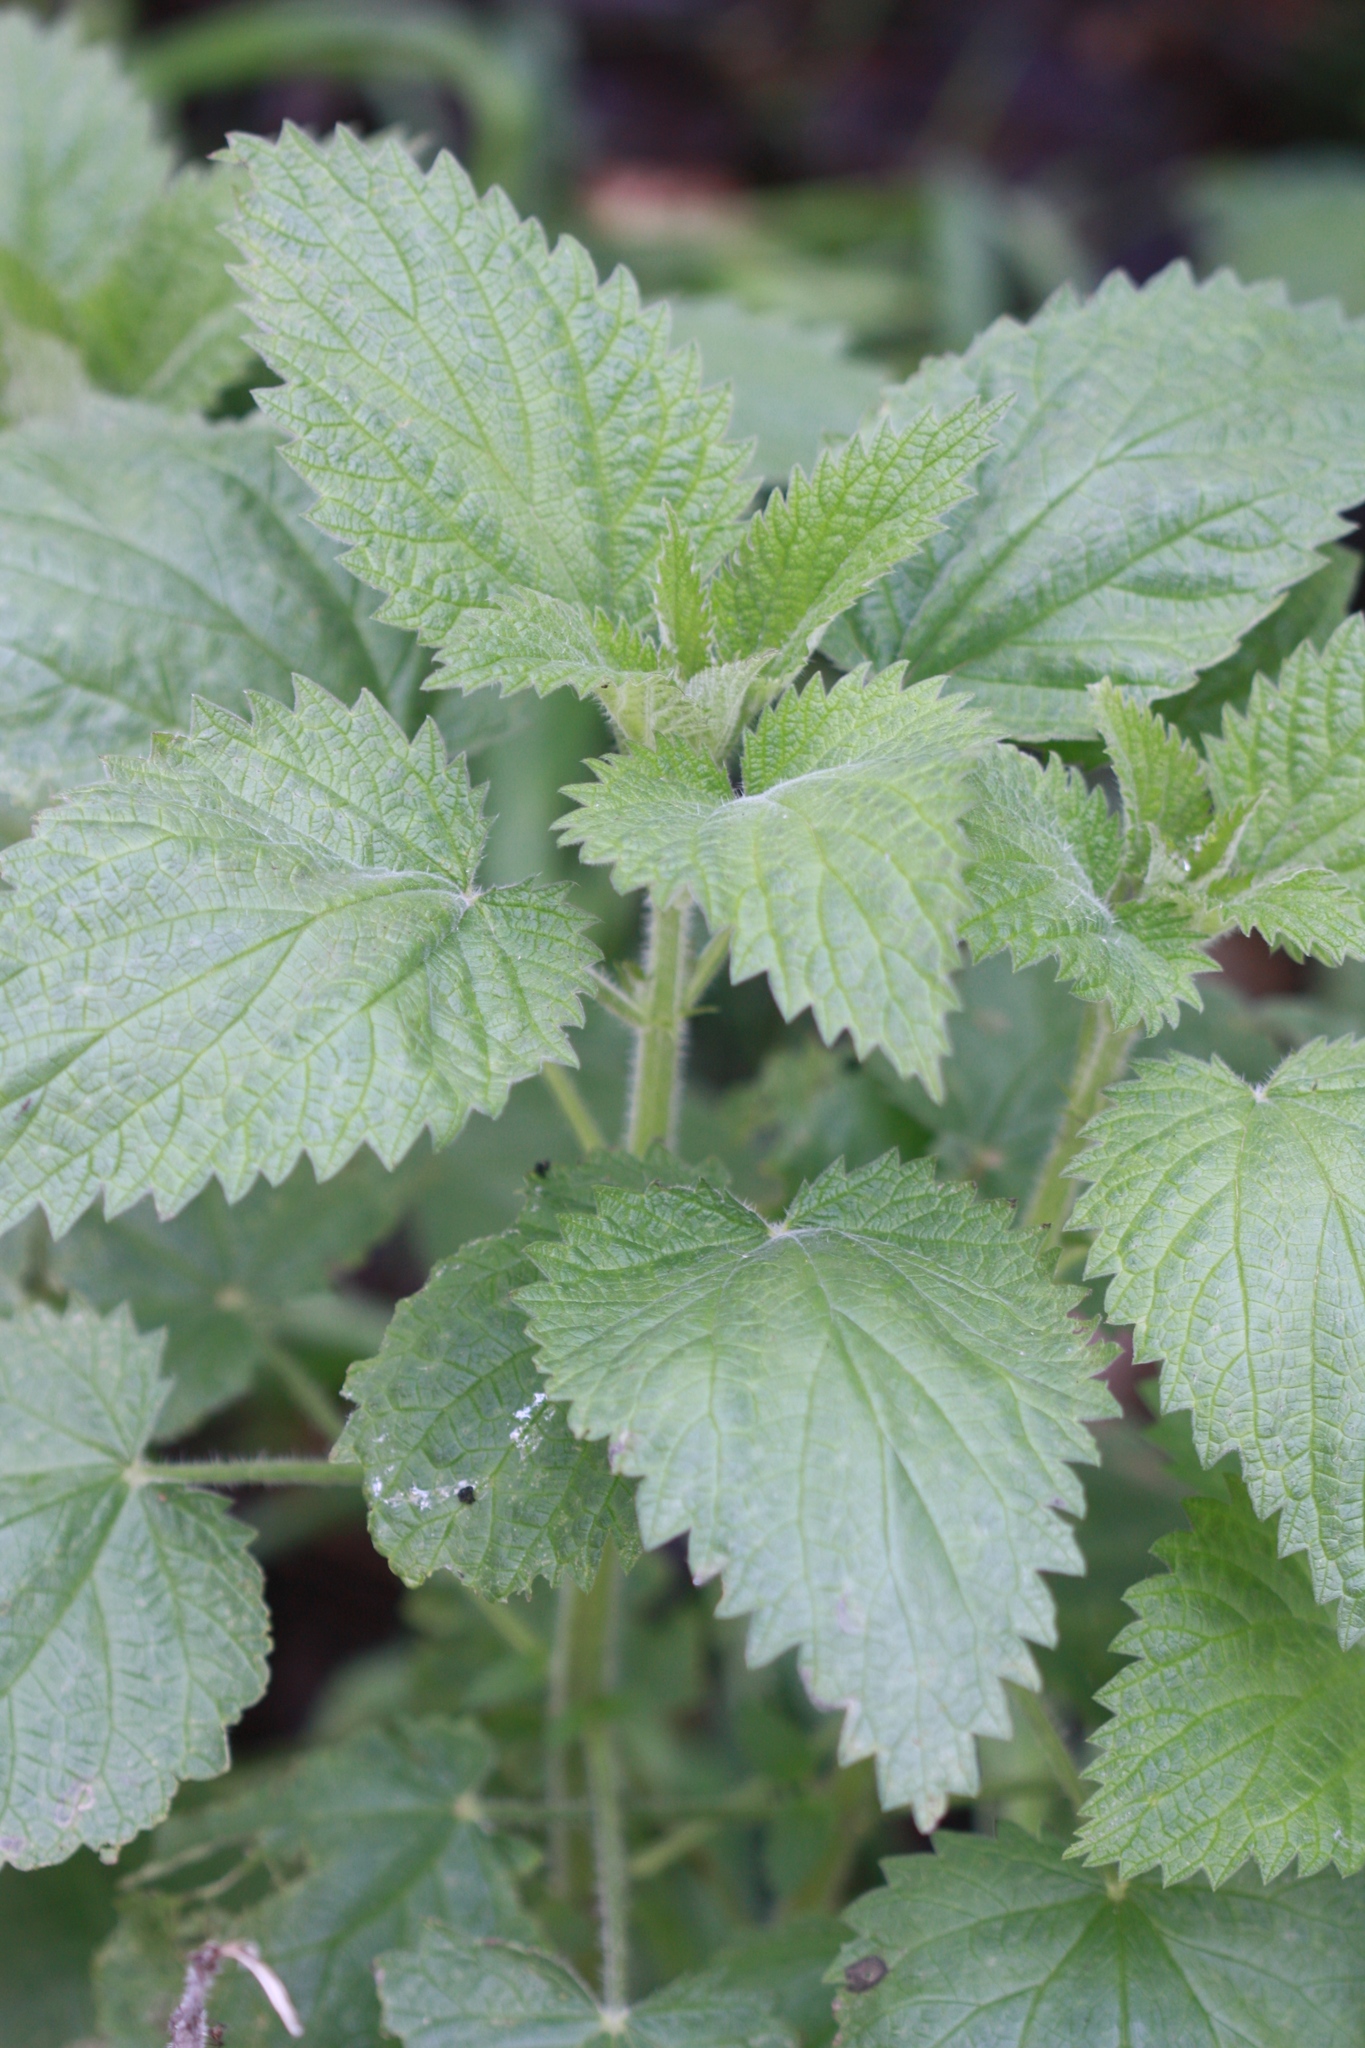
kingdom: Plantae
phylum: Tracheophyta
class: Magnoliopsida
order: Rosales
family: Urticaceae
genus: Urtica
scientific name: Urtica dioica
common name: Common nettle
